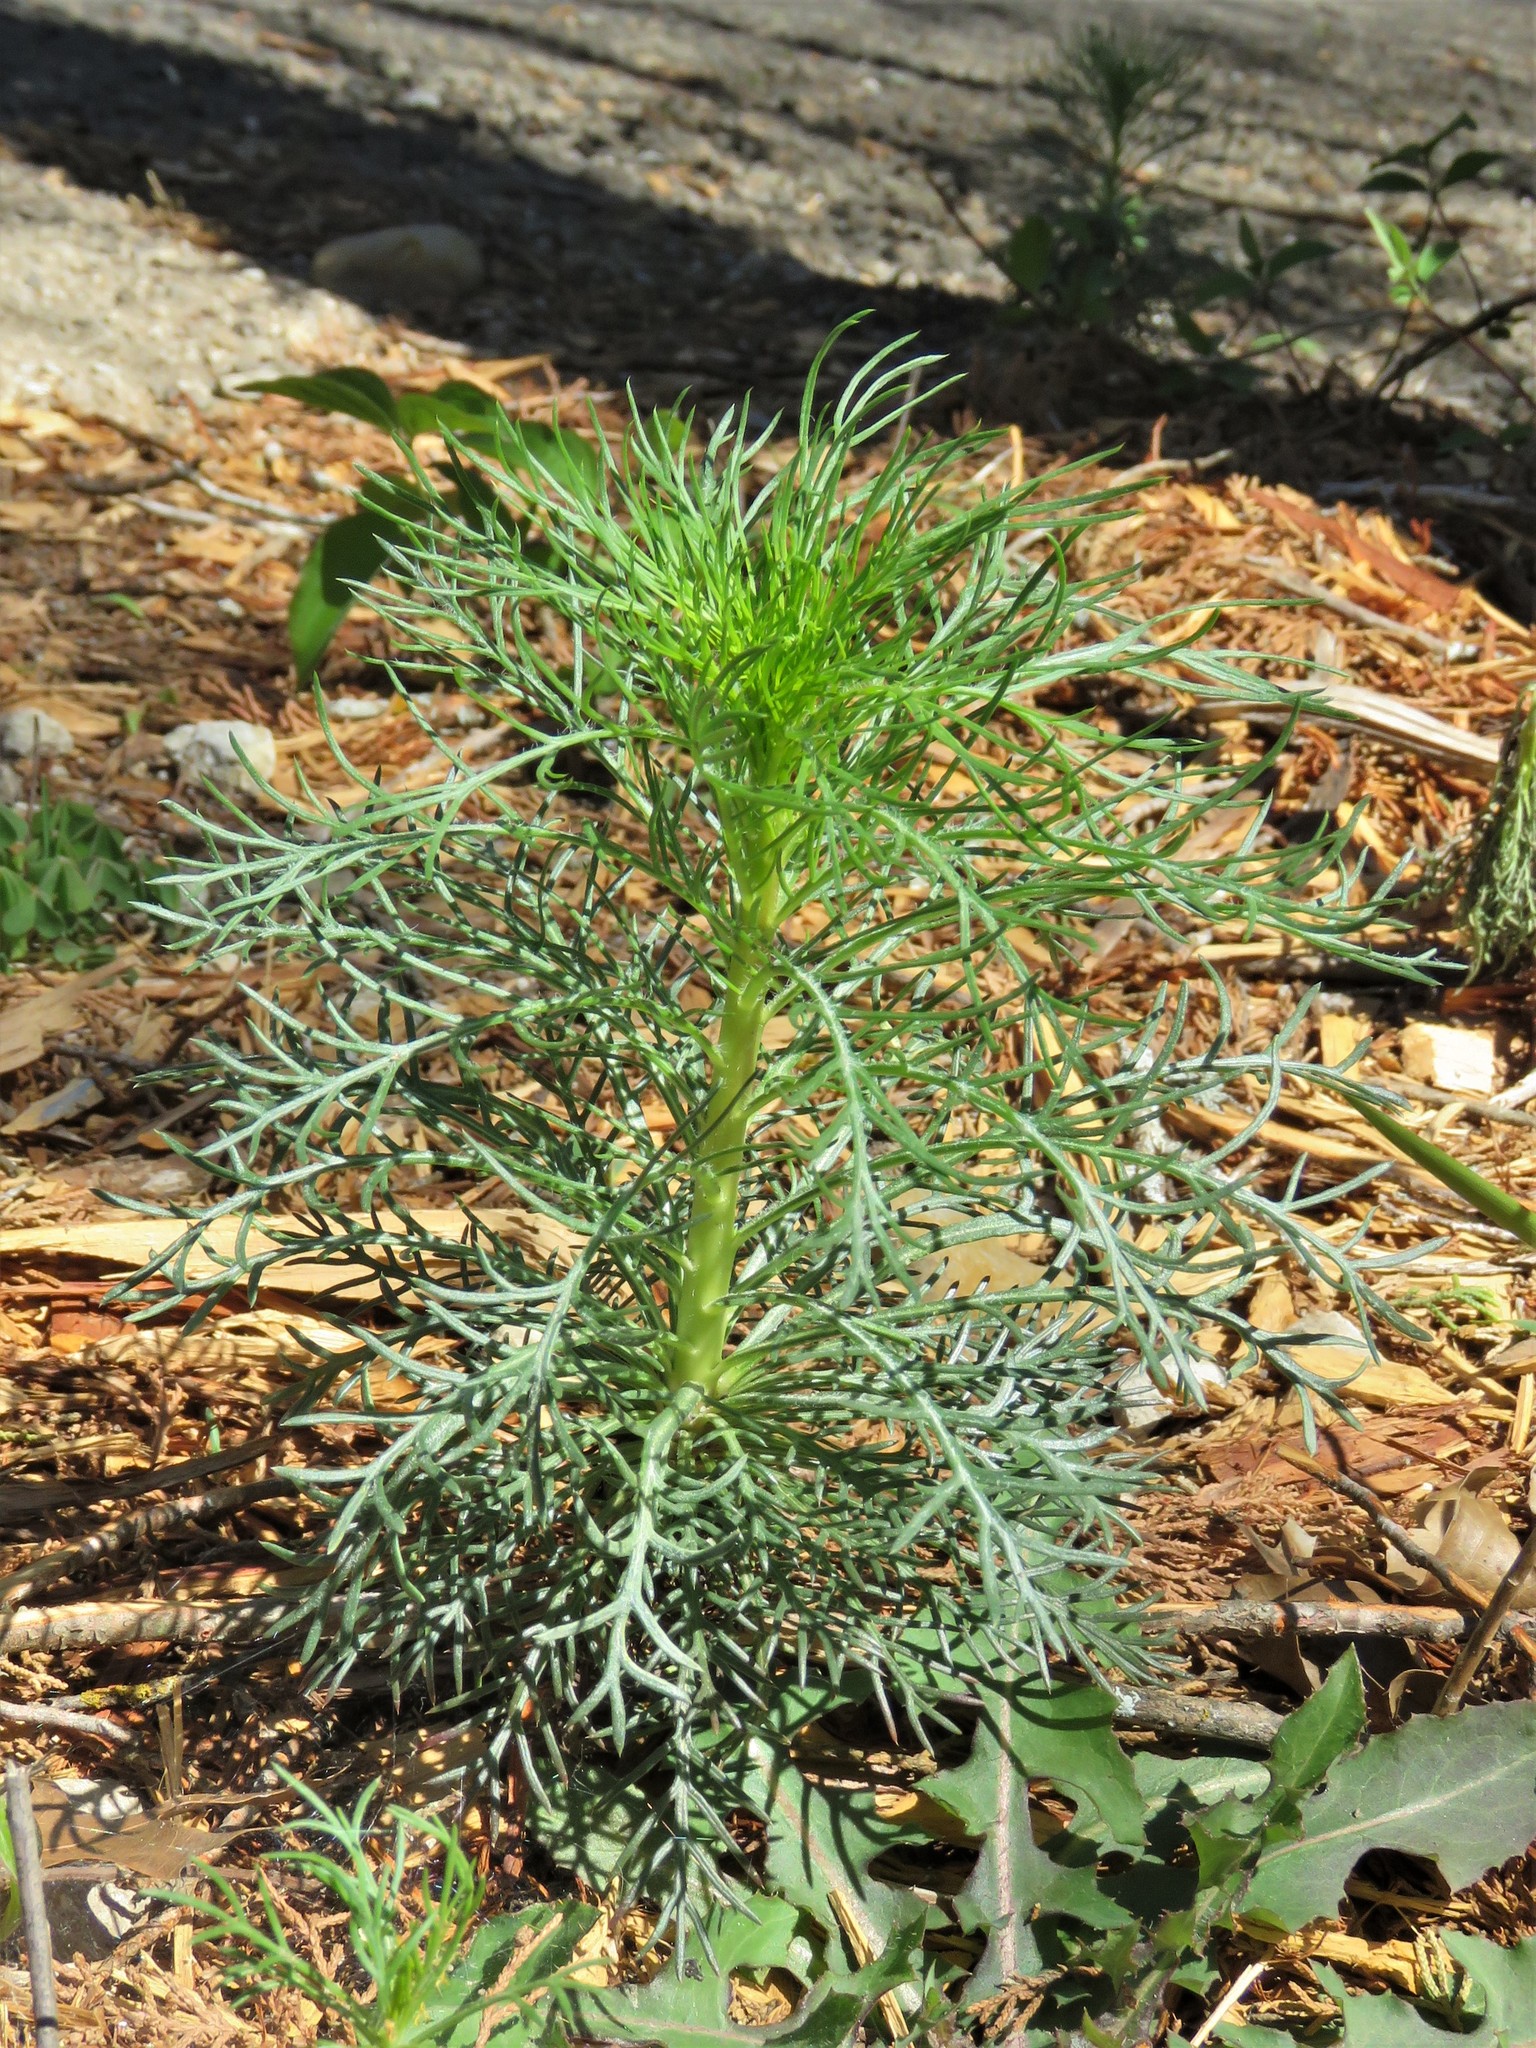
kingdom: Plantae
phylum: Tracheophyta
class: Magnoliopsida
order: Ericales
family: Polemoniaceae
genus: Ipomopsis
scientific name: Ipomopsis rubra
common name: Skyrocket
